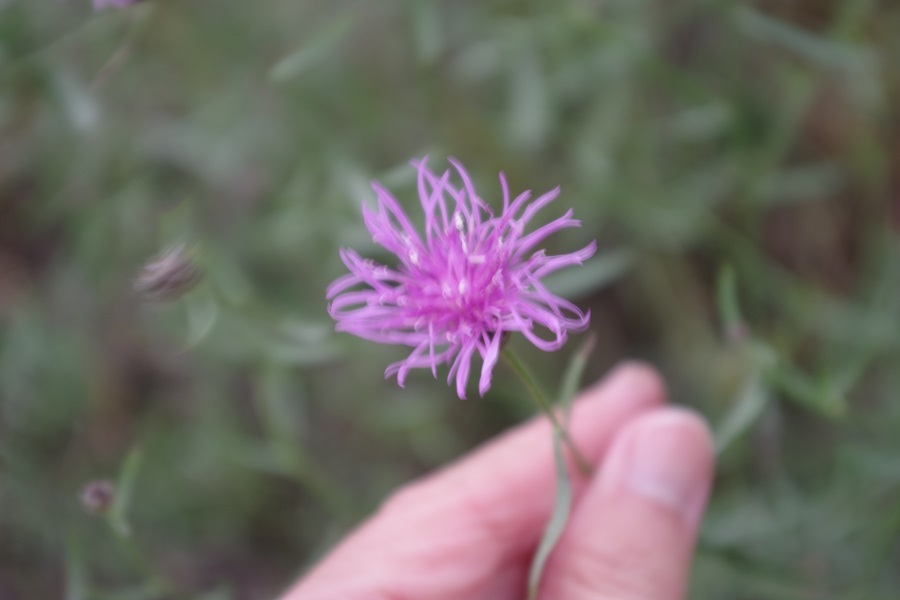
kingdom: Plantae
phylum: Tracheophyta
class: Magnoliopsida
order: Asterales
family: Asteraceae
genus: Centaurea
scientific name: Centaurea stoebe
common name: Spotted knapweed
